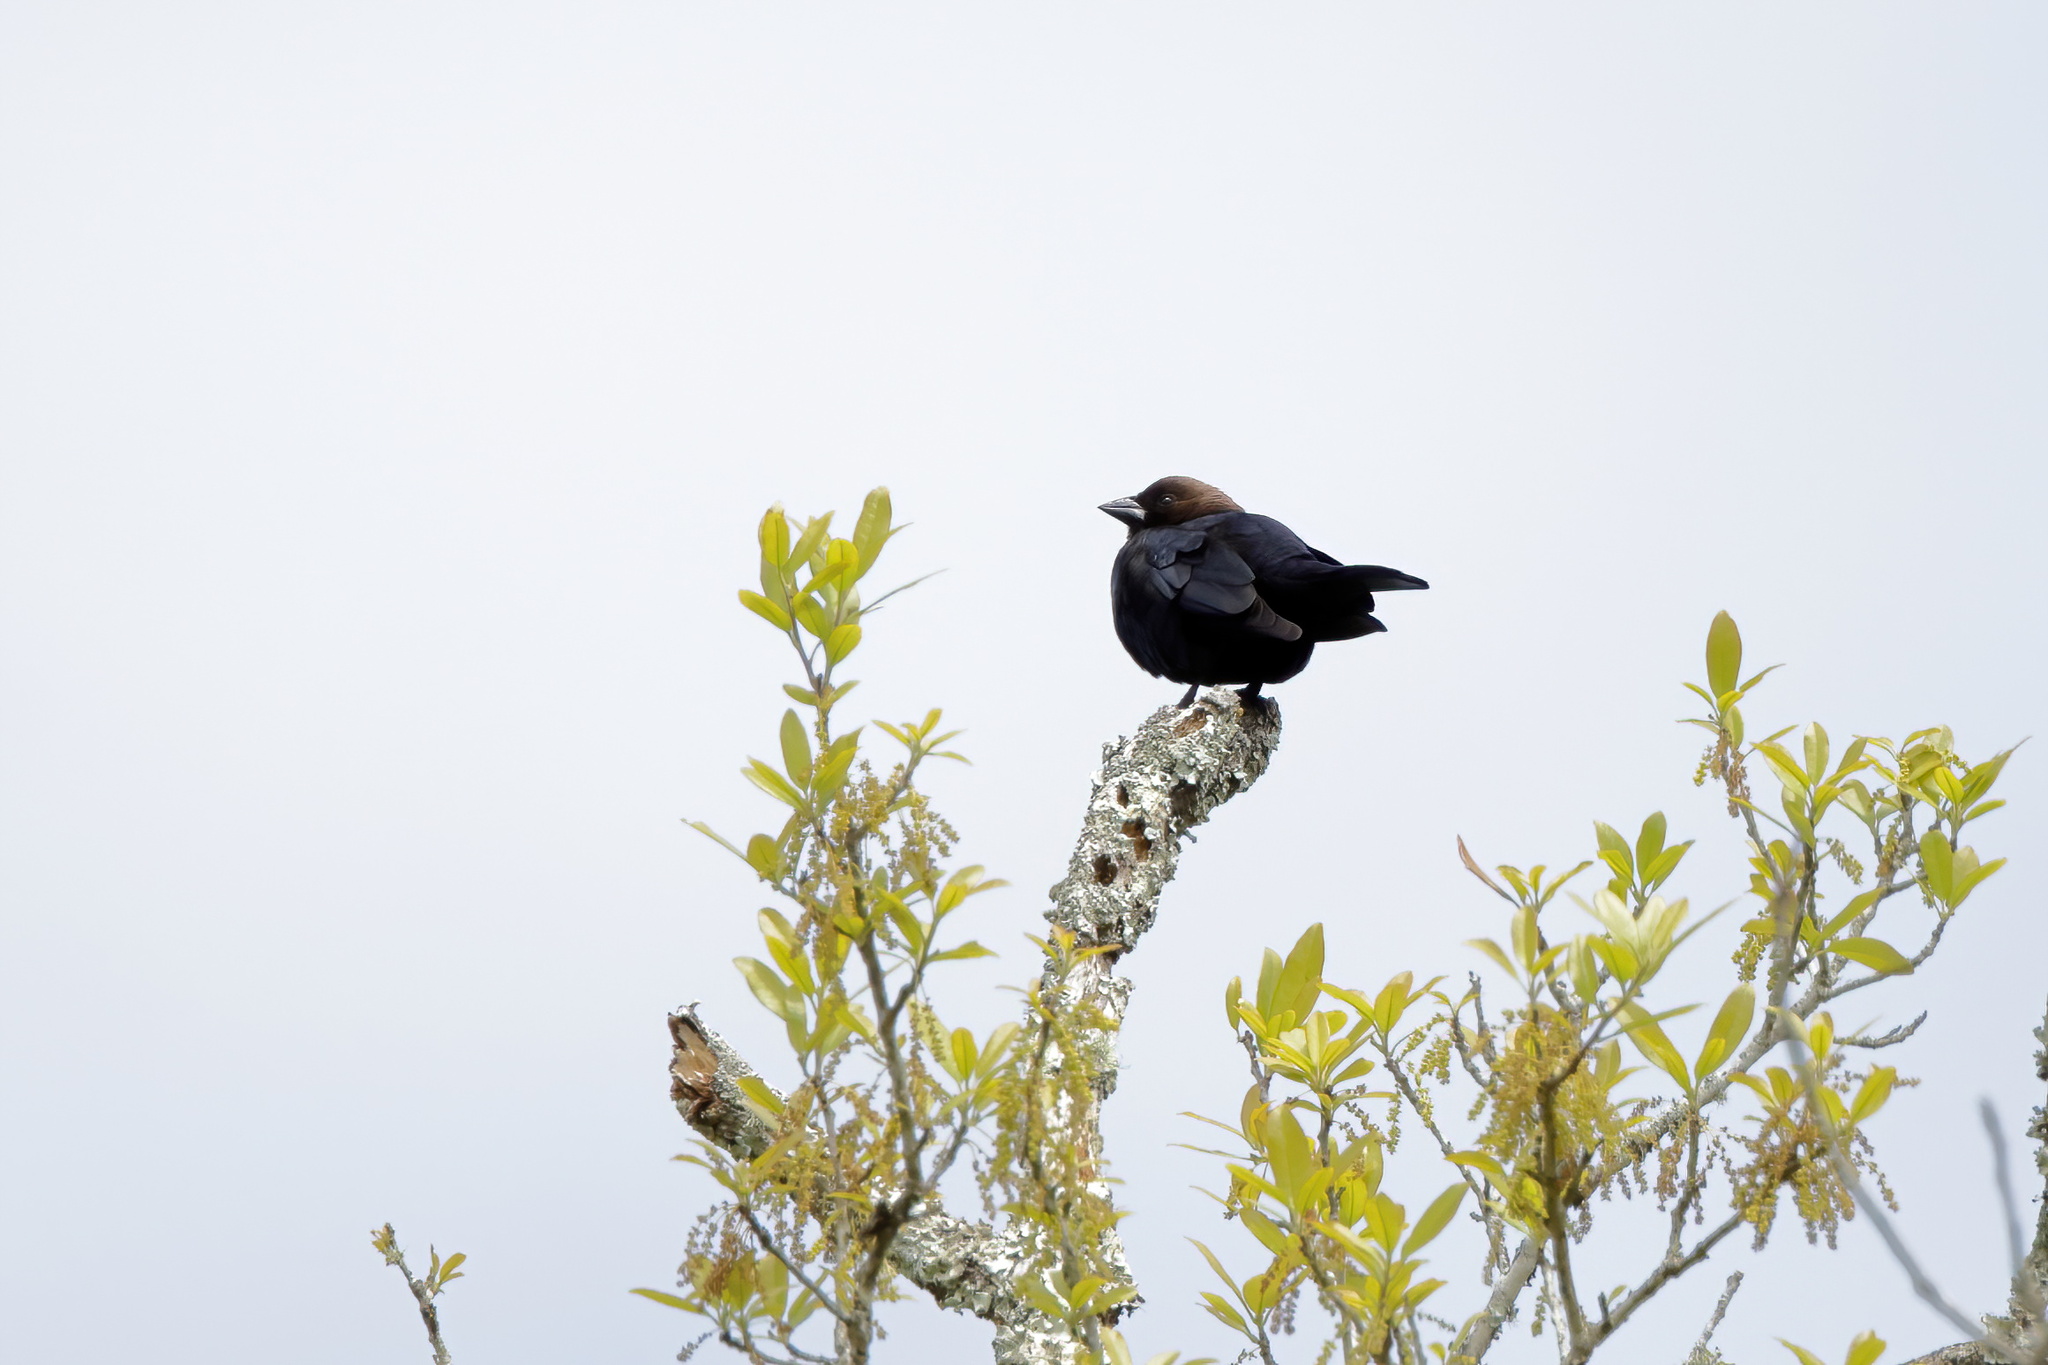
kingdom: Animalia
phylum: Chordata
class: Aves
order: Passeriformes
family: Icteridae
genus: Molothrus
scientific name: Molothrus ater
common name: Brown-headed cowbird
